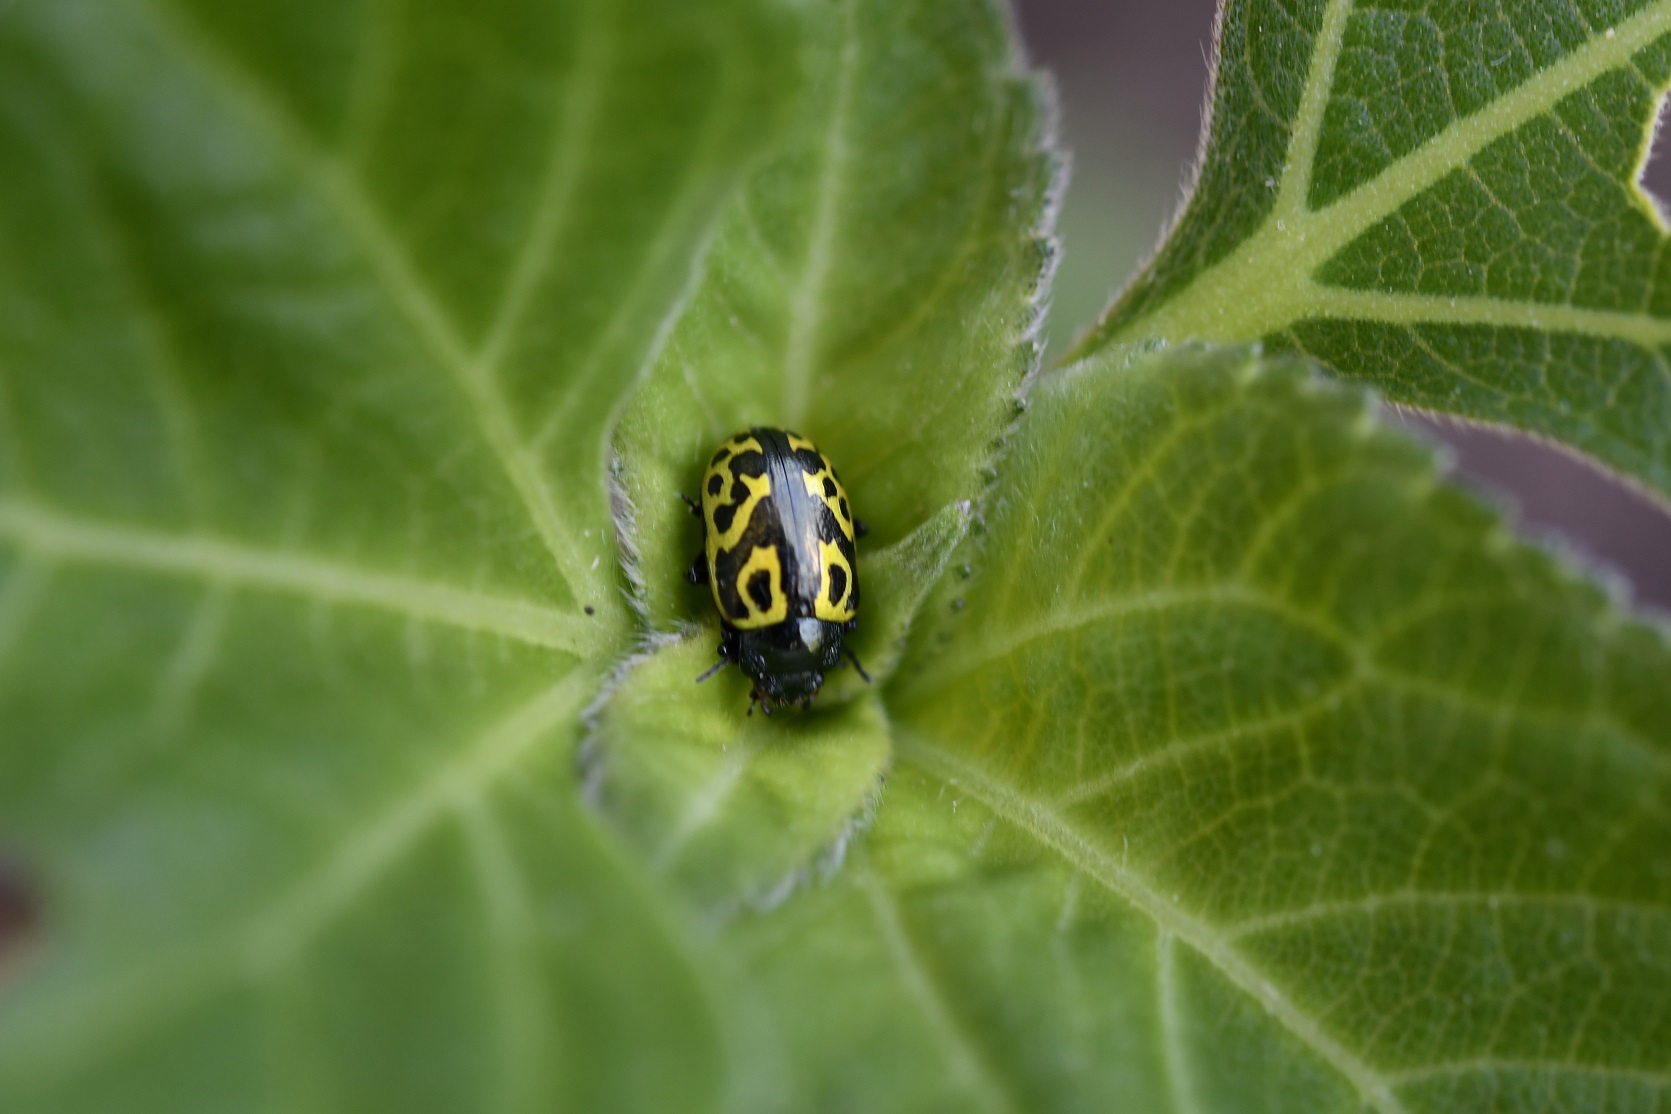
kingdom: Animalia
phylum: Arthropoda
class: Insecta
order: Coleoptera
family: Chrysomelidae
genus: Calligrapha
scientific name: Calligrapha
